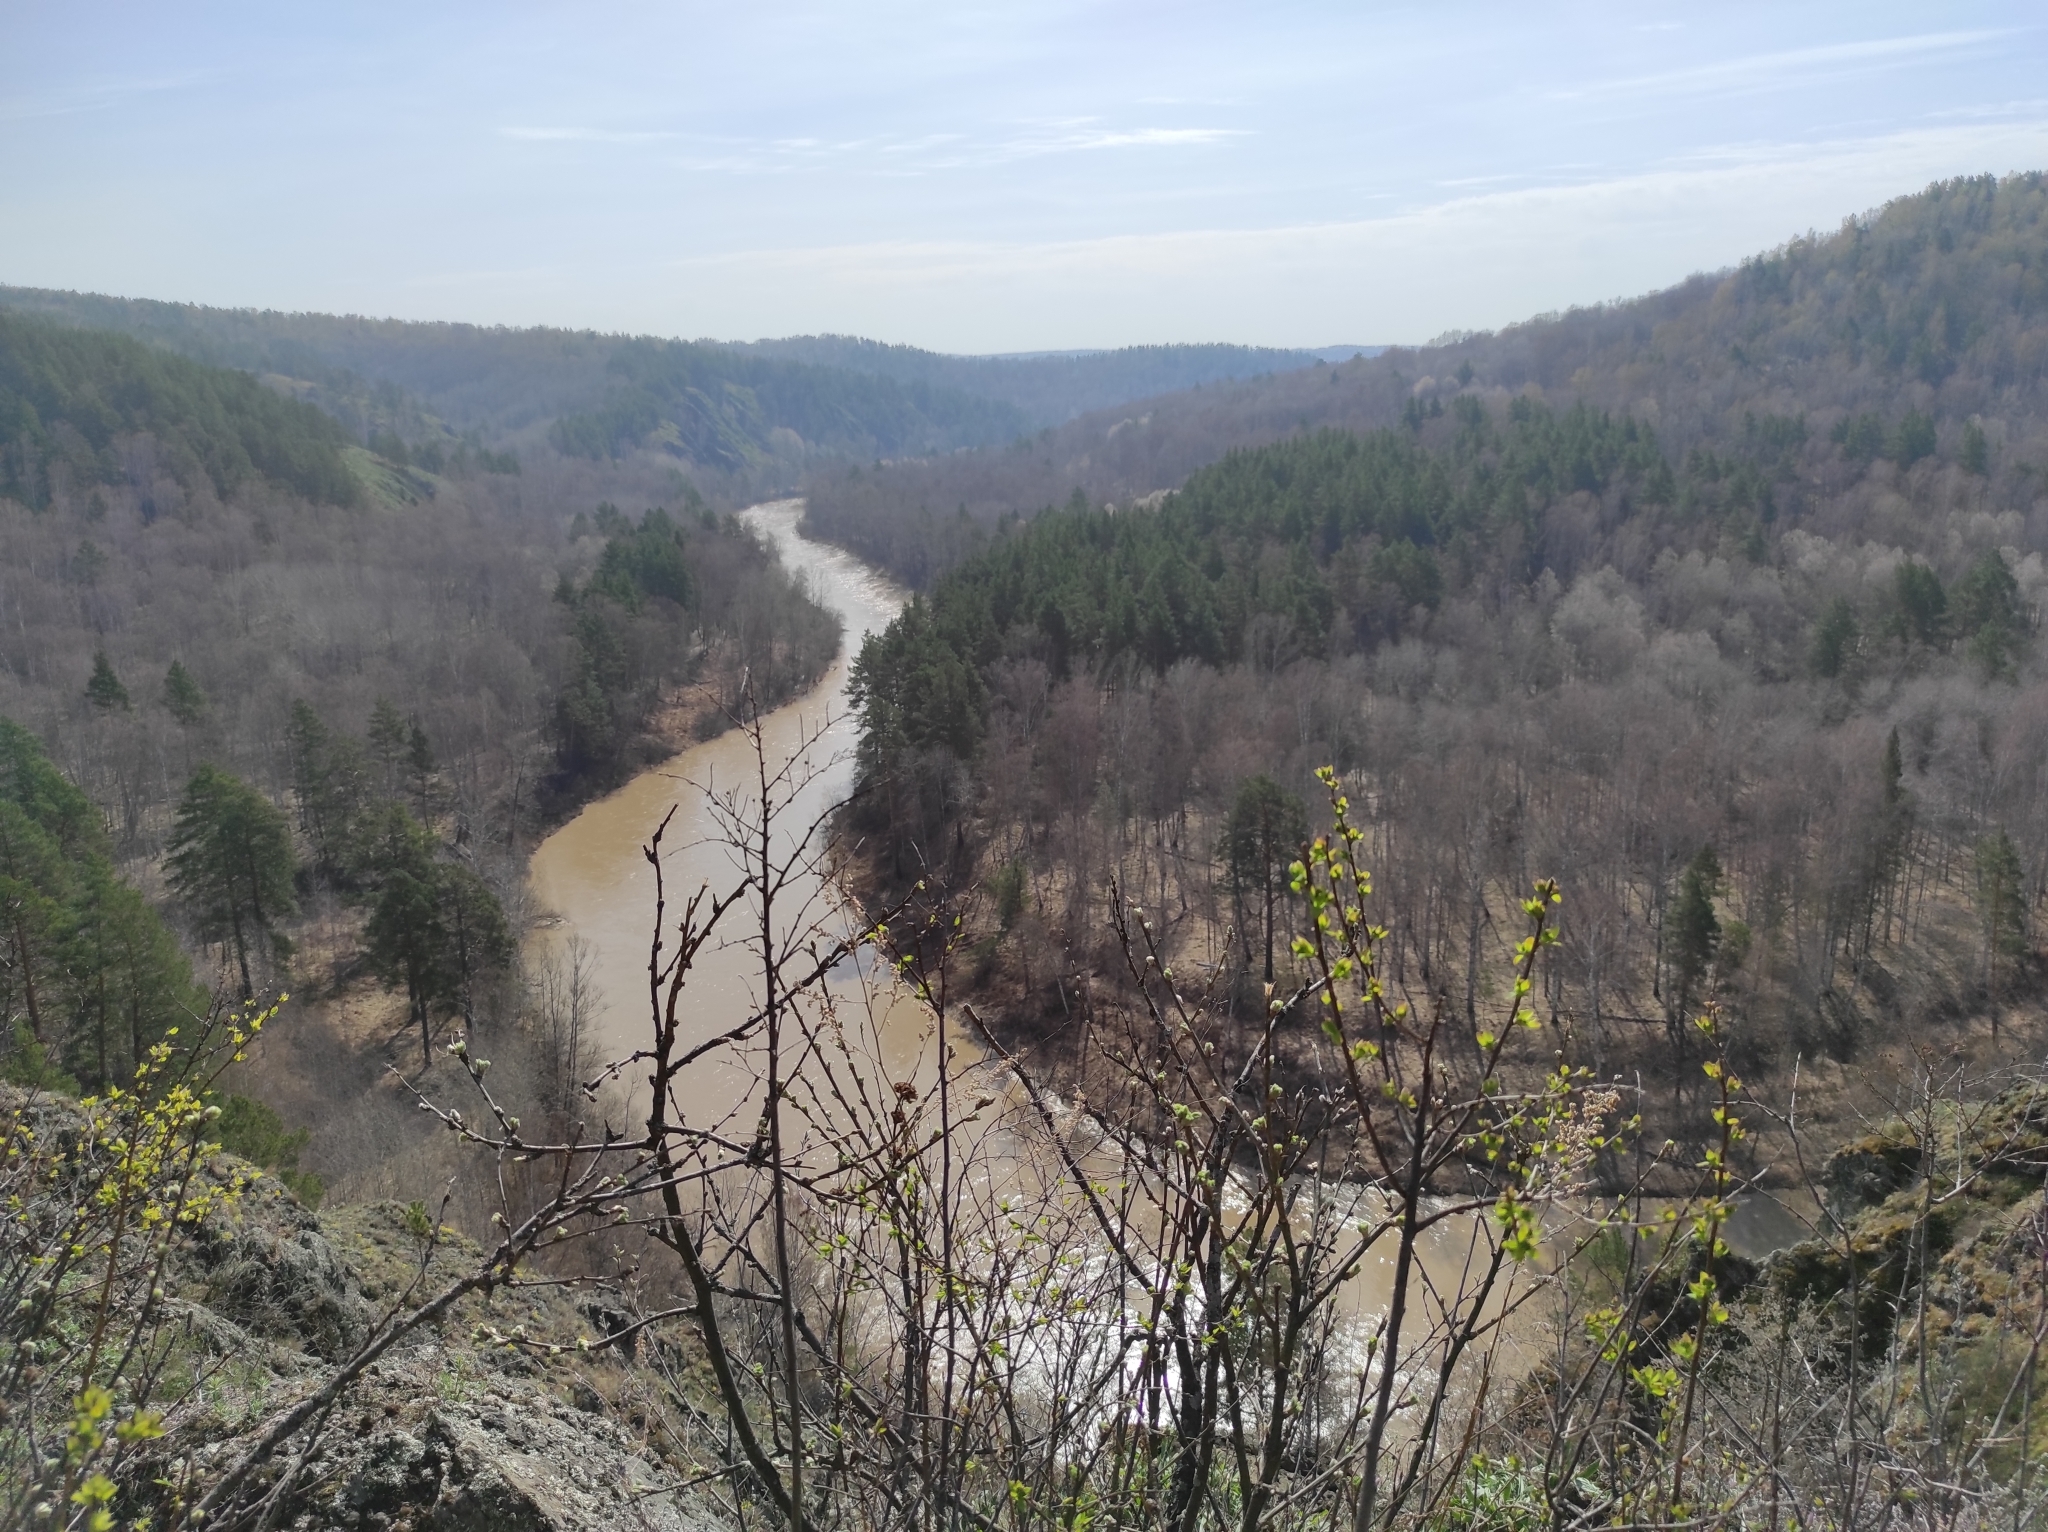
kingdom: Plantae
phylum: Tracheophyta
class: Pinopsida
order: Pinales
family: Pinaceae
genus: Pinus
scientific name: Pinus sylvestris
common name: Scots pine
